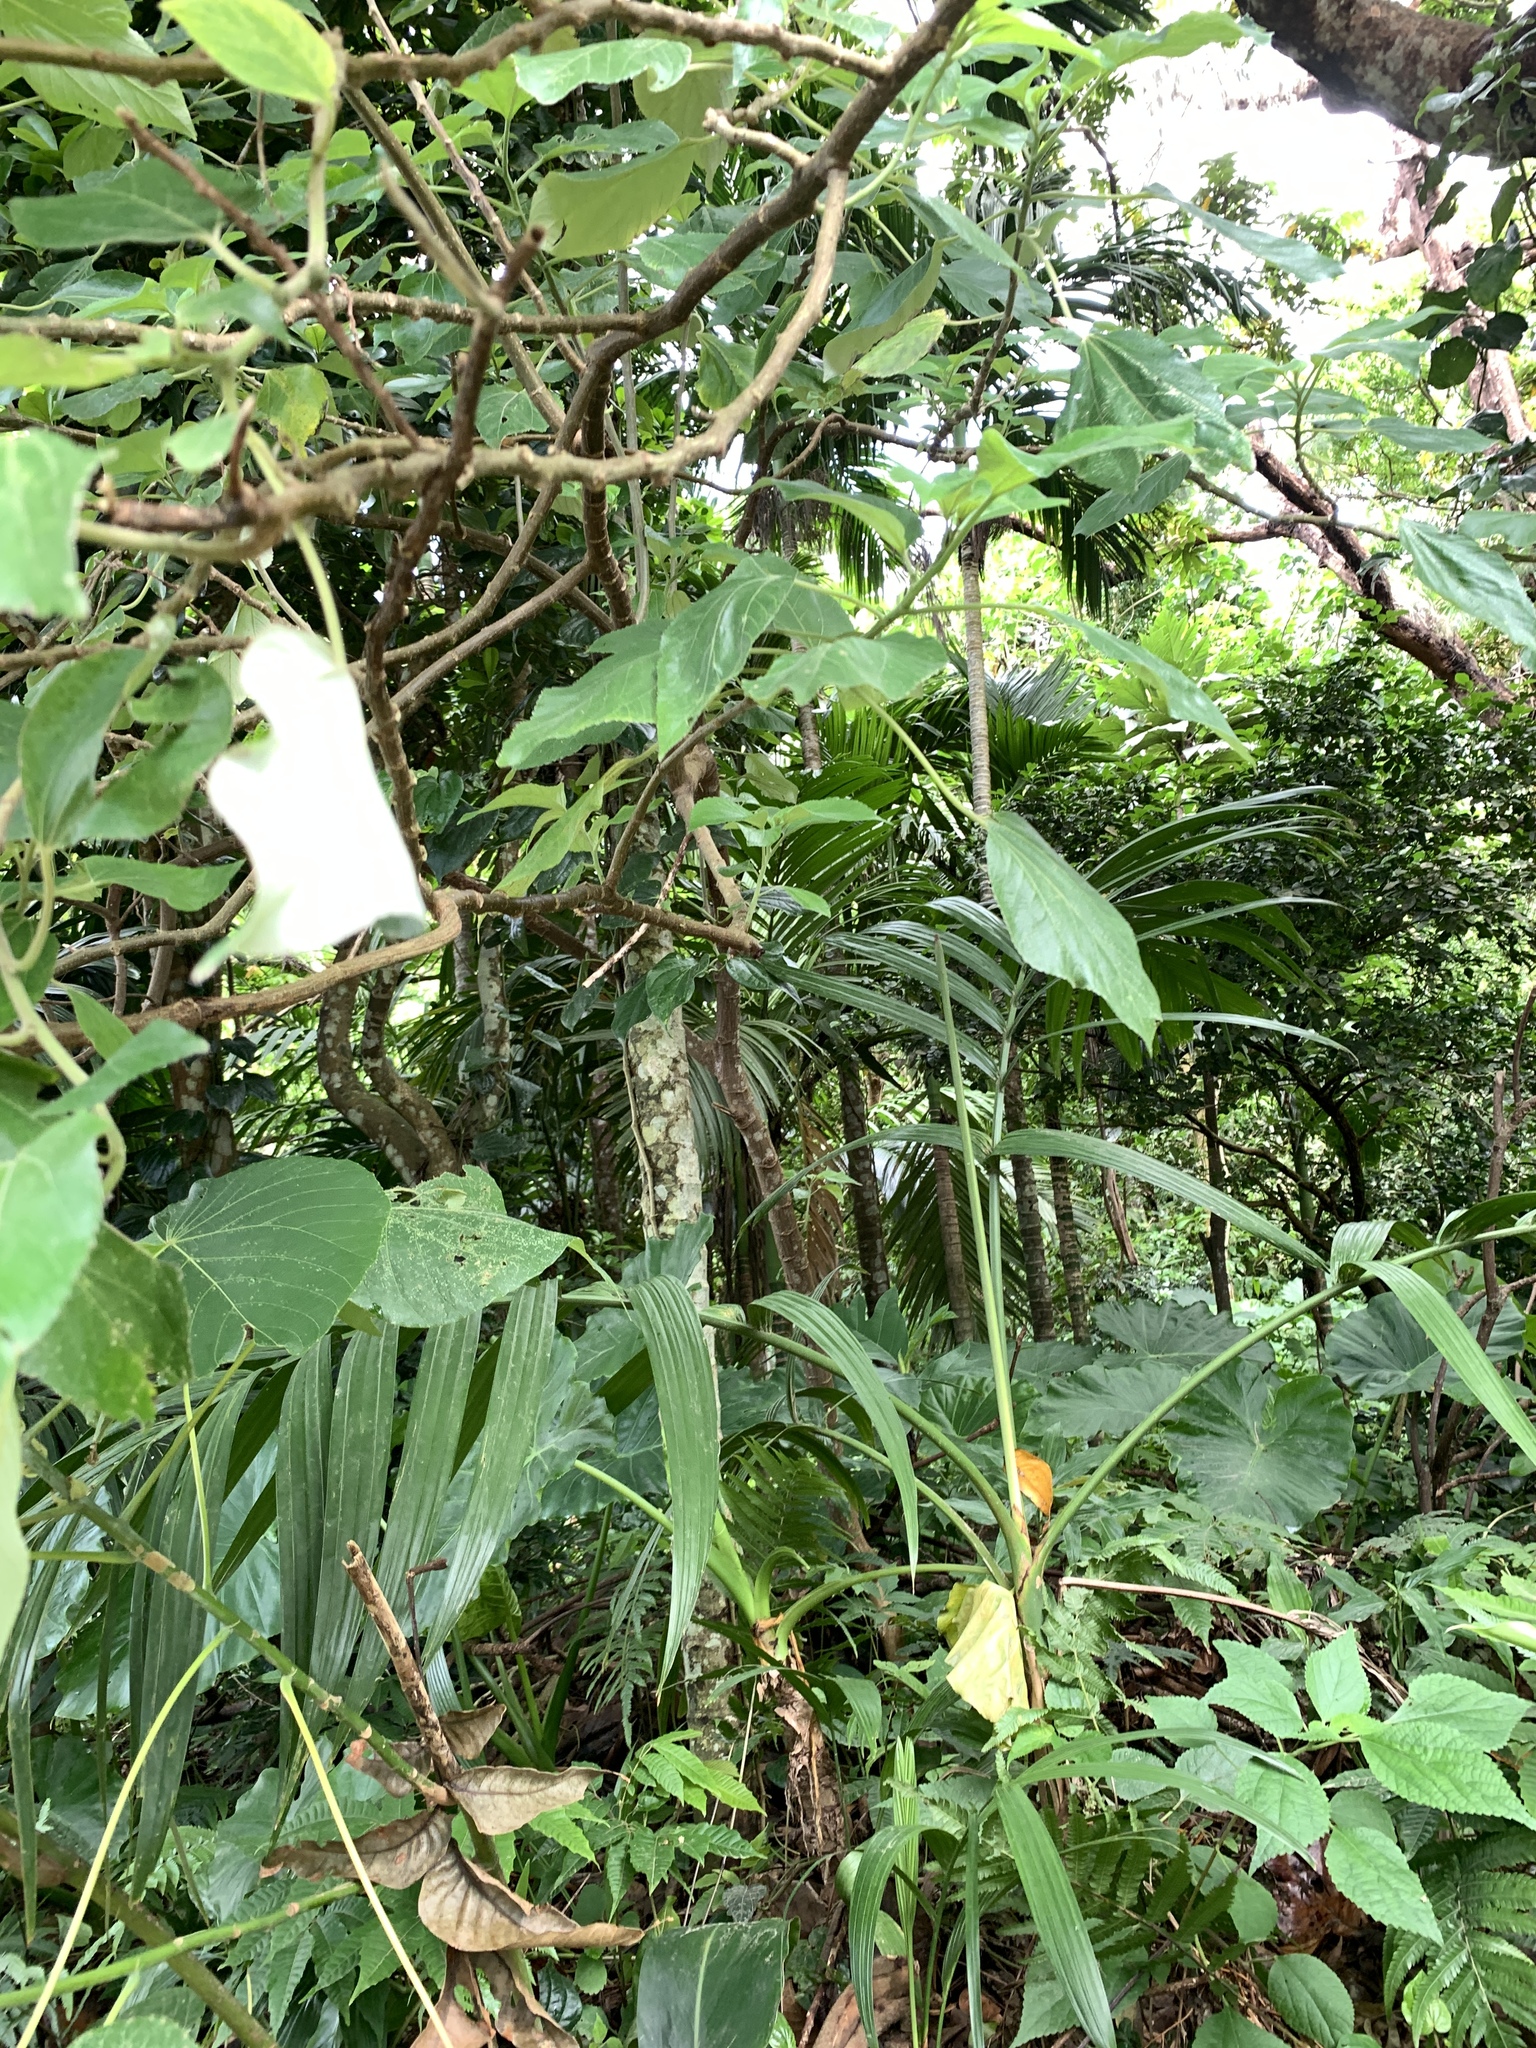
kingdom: Plantae
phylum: Tracheophyta
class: Magnoliopsida
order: Rosales
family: Urticaceae
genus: Pipturus
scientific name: Pipturus arborescens
